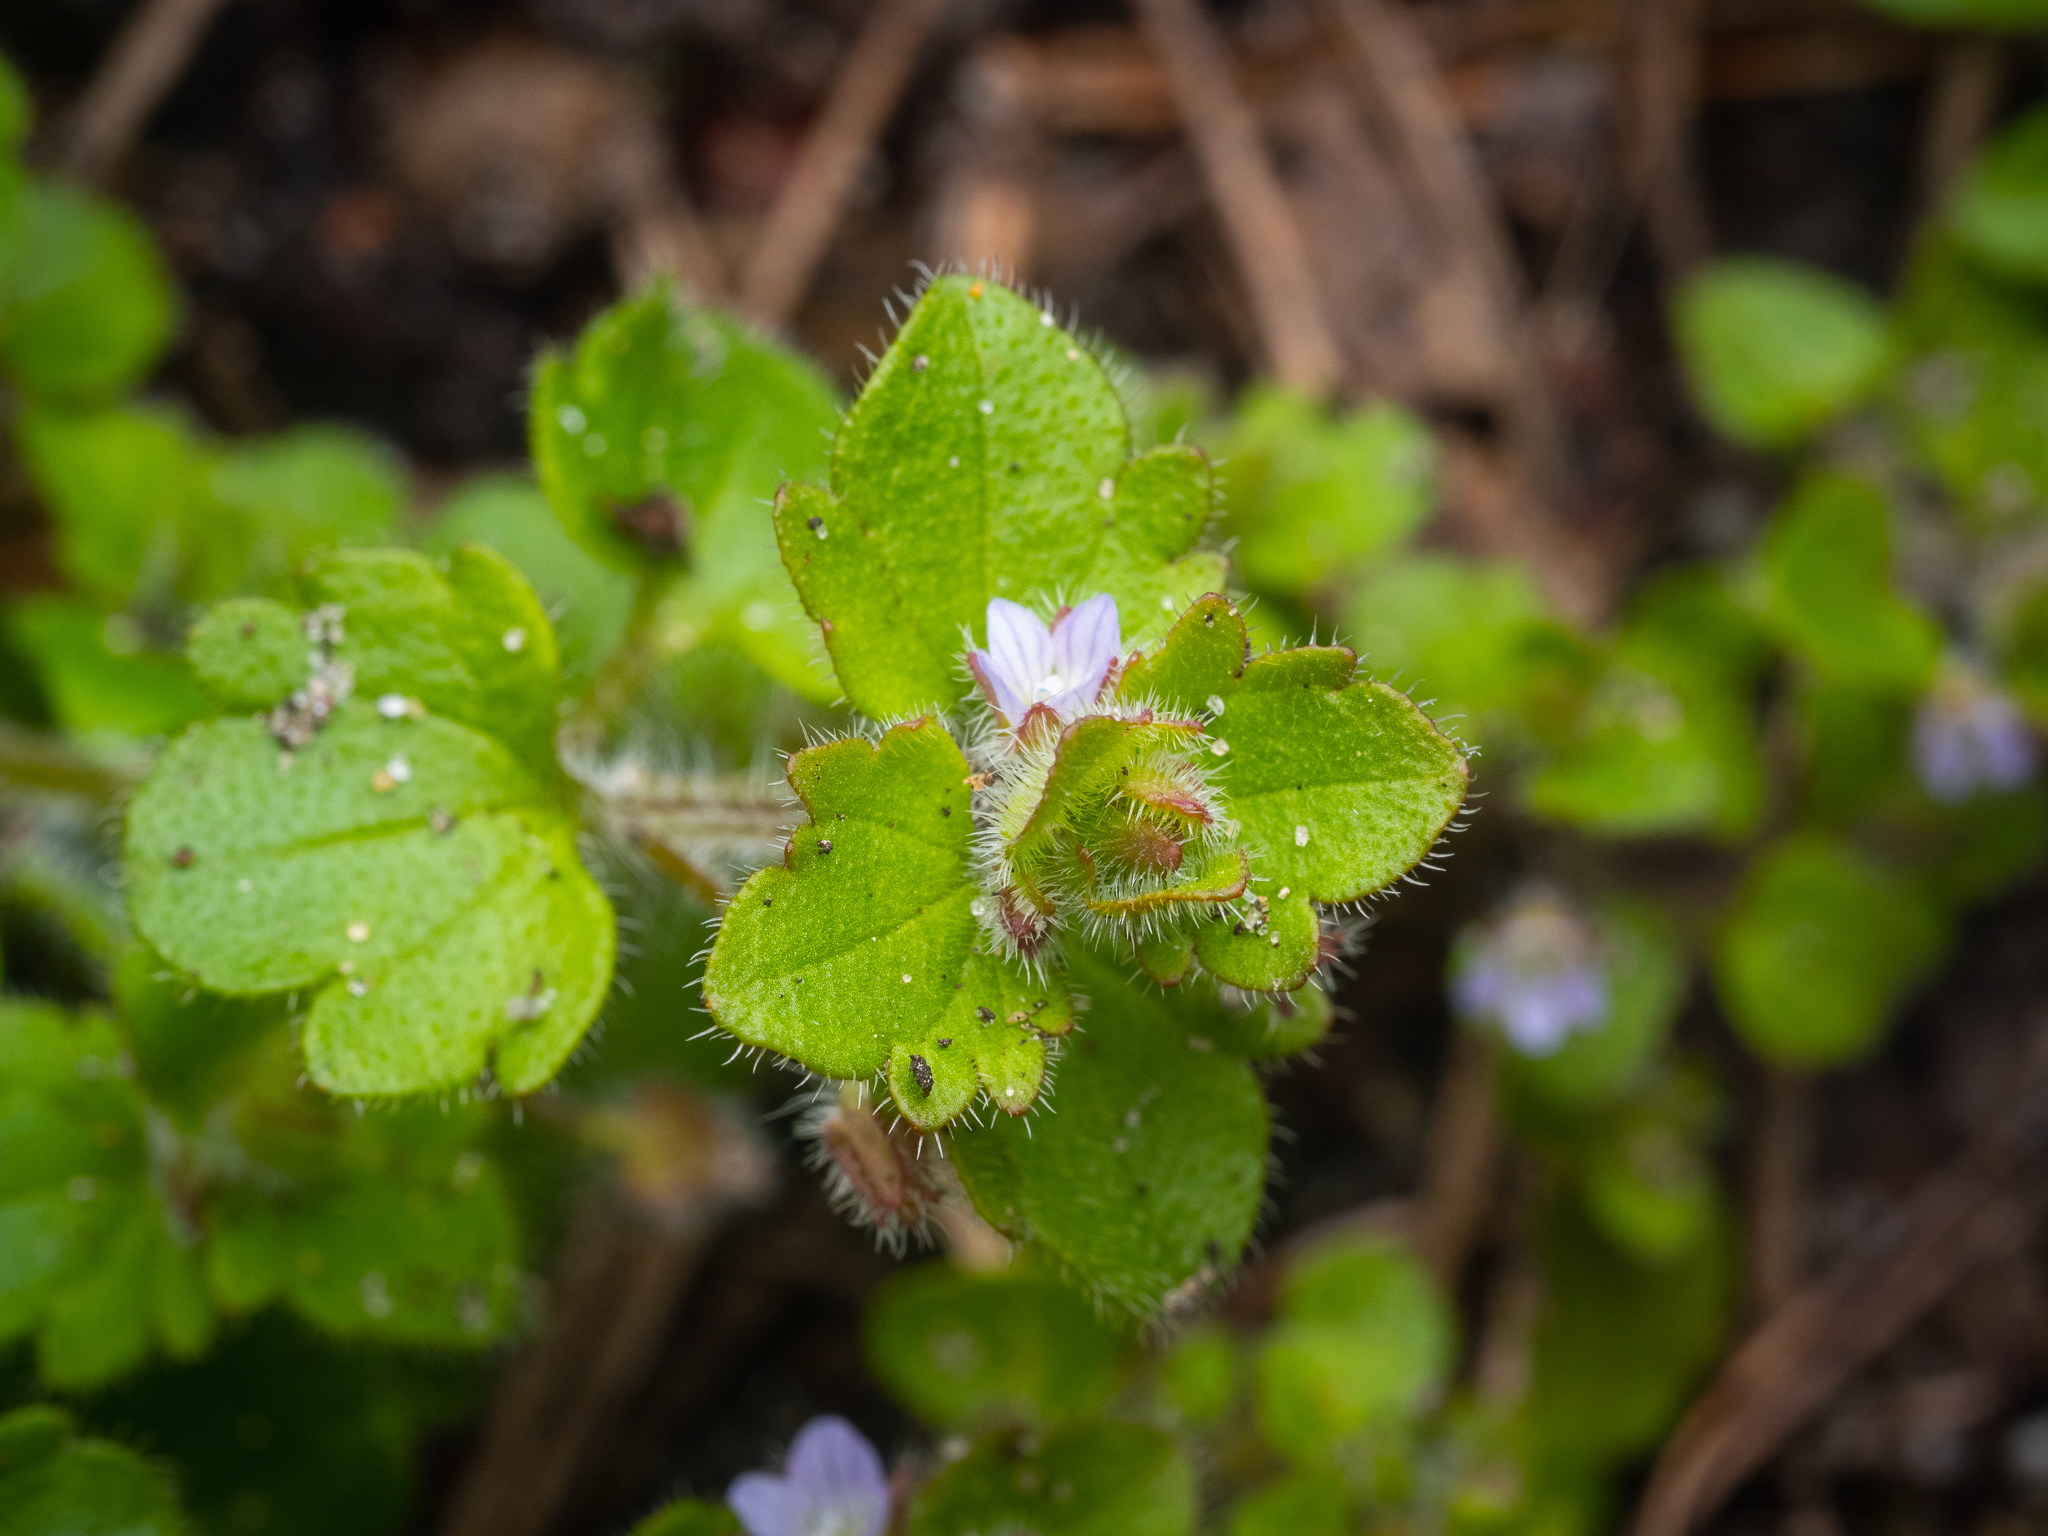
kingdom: Plantae
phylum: Tracheophyta
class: Magnoliopsida
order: Lamiales
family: Plantaginaceae
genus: Veronica
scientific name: Veronica sublobata
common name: False ivy-leaved speedwell
